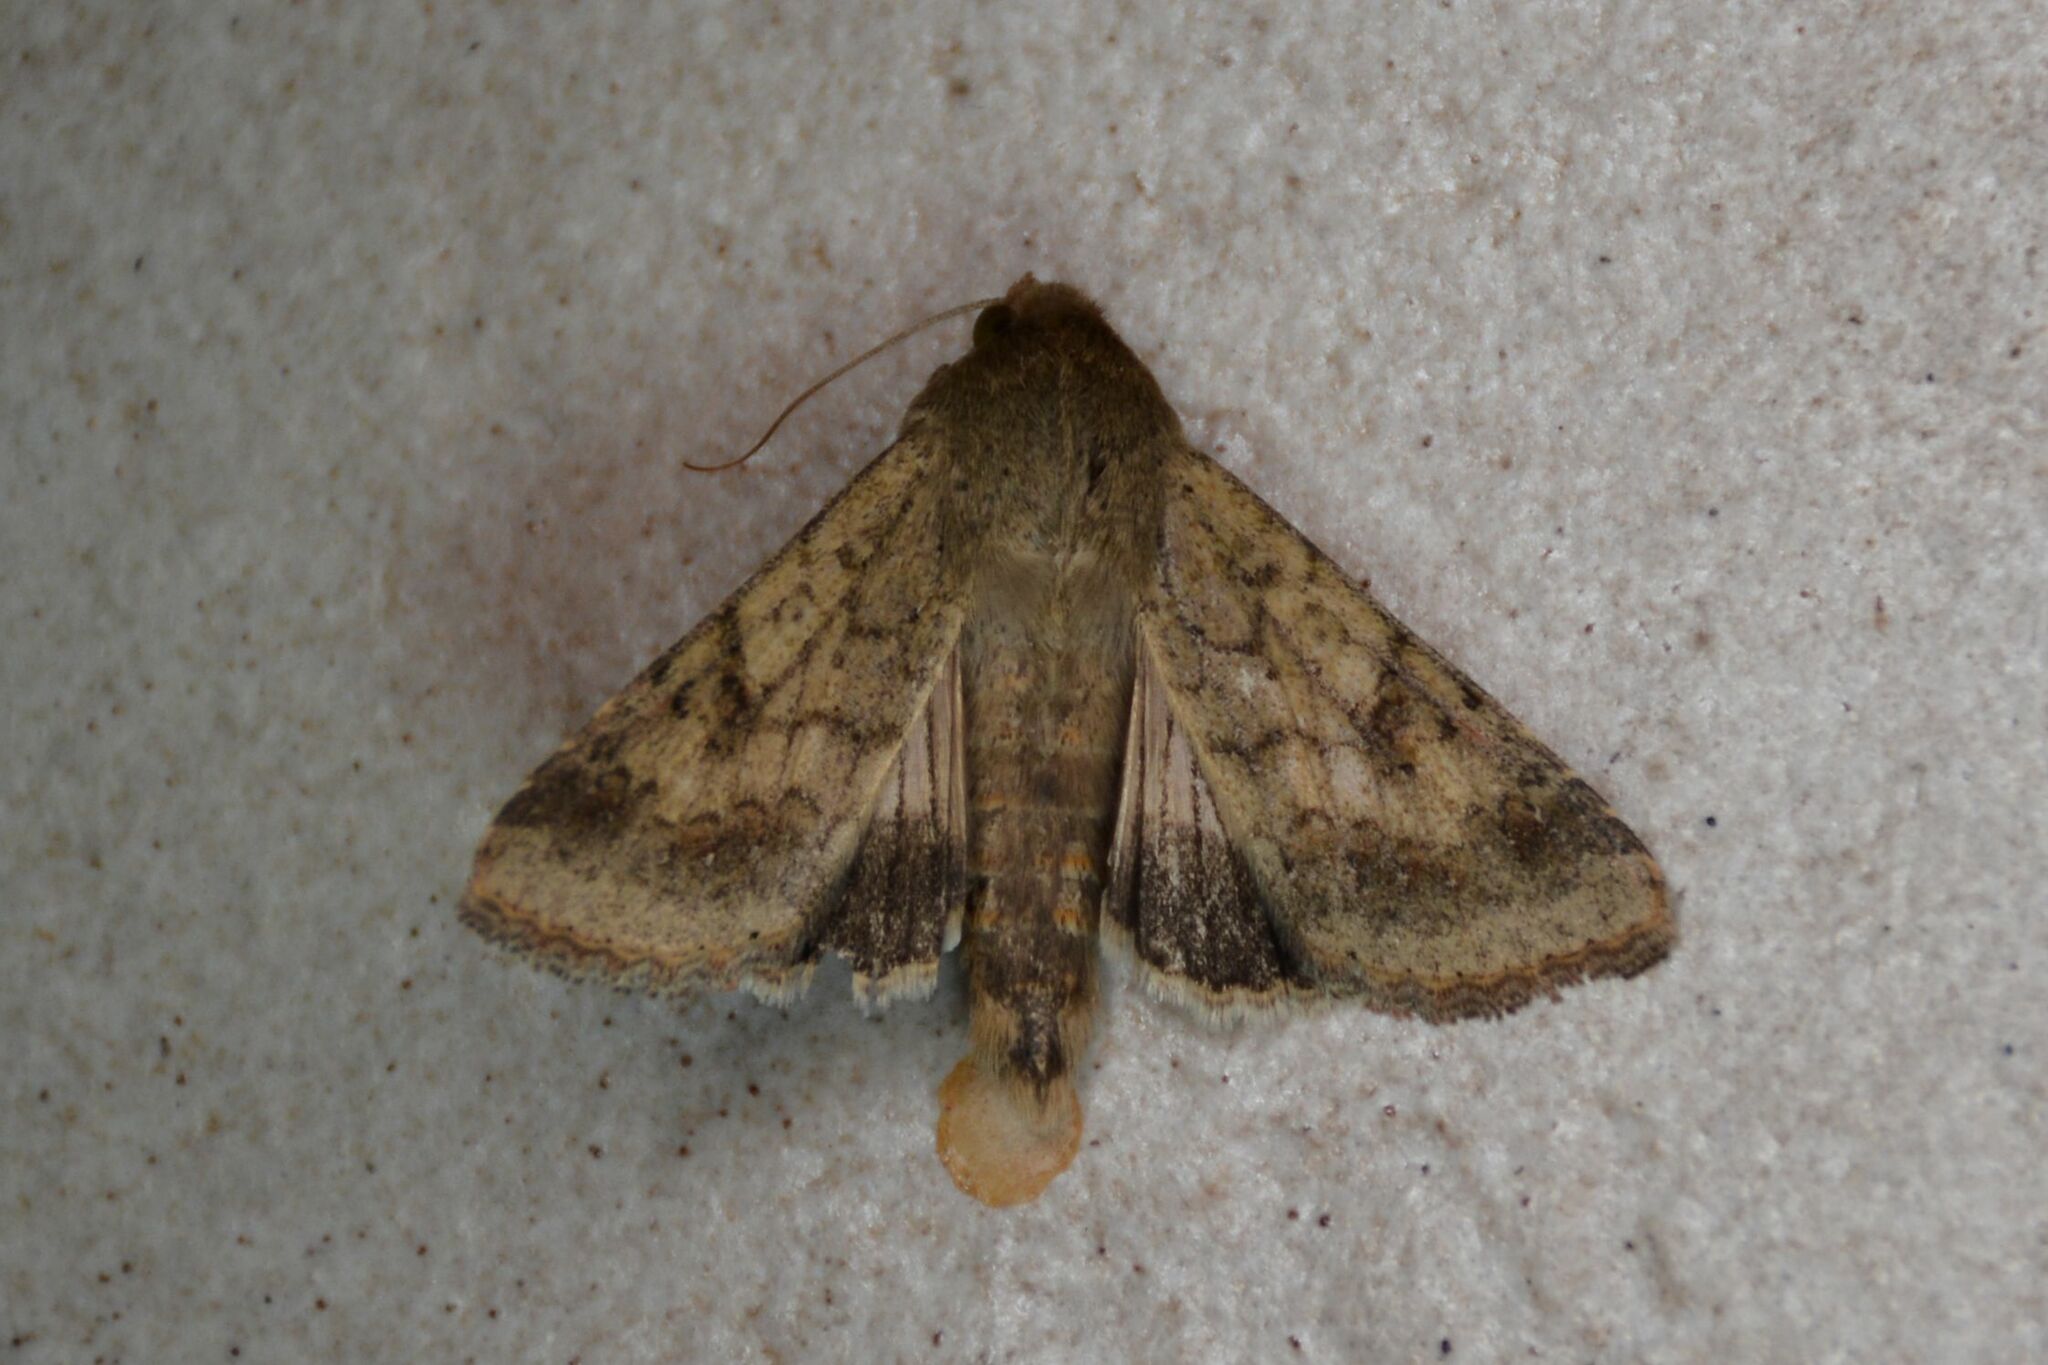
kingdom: Animalia
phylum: Arthropoda
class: Insecta
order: Lepidoptera
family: Noctuidae
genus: Helicoverpa
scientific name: Helicoverpa armigera
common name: Cotton bollworm
